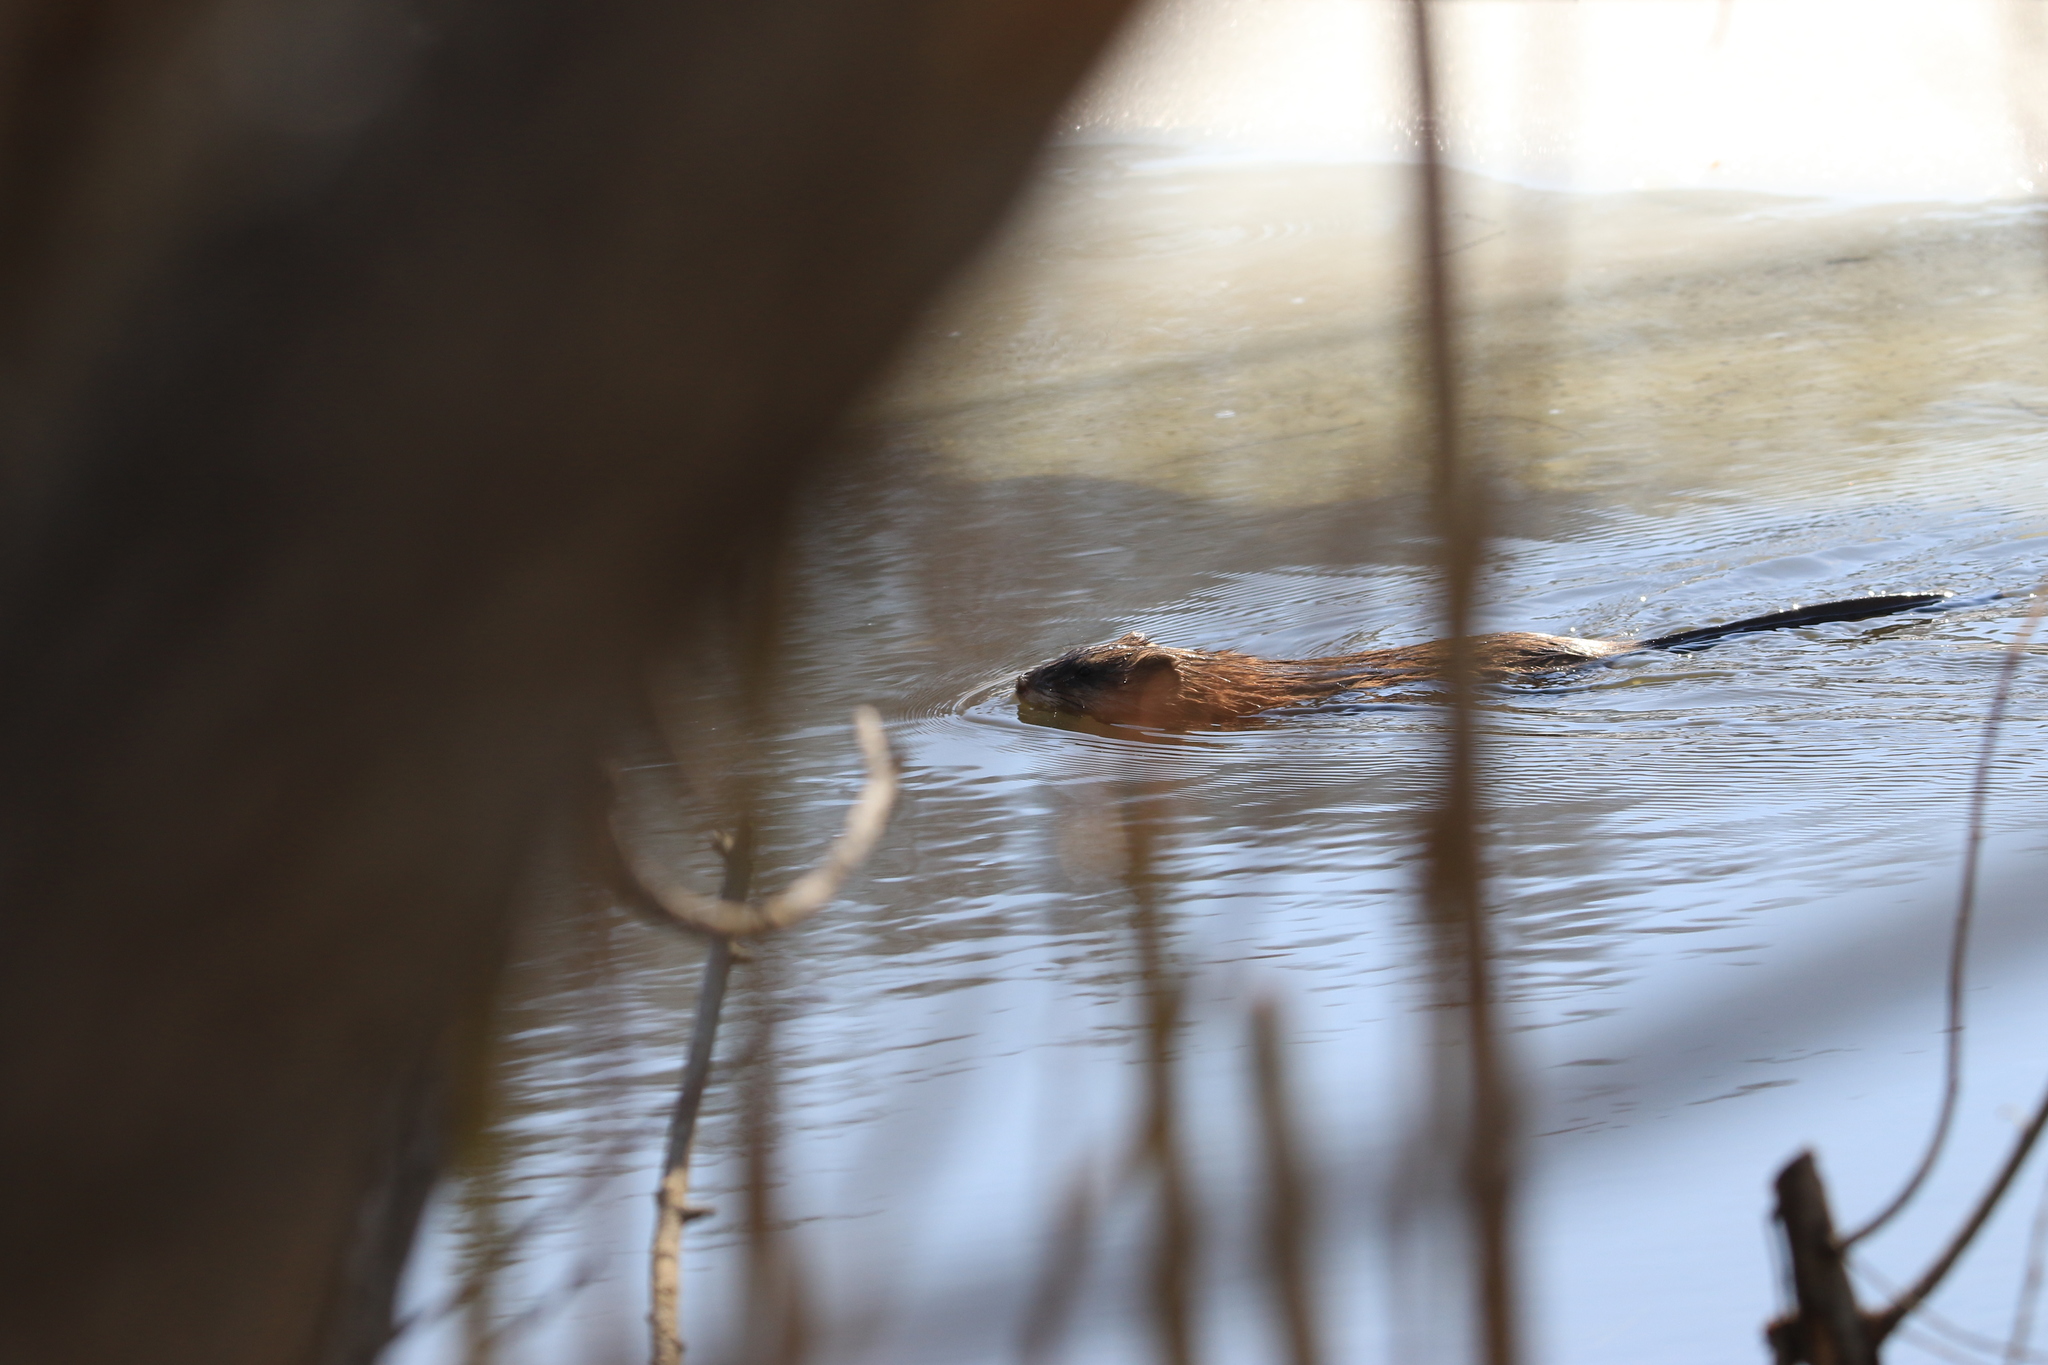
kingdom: Animalia
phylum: Chordata
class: Mammalia
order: Rodentia
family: Cricetidae
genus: Ondatra
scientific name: Ondatra zibethicus
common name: Muskrat
